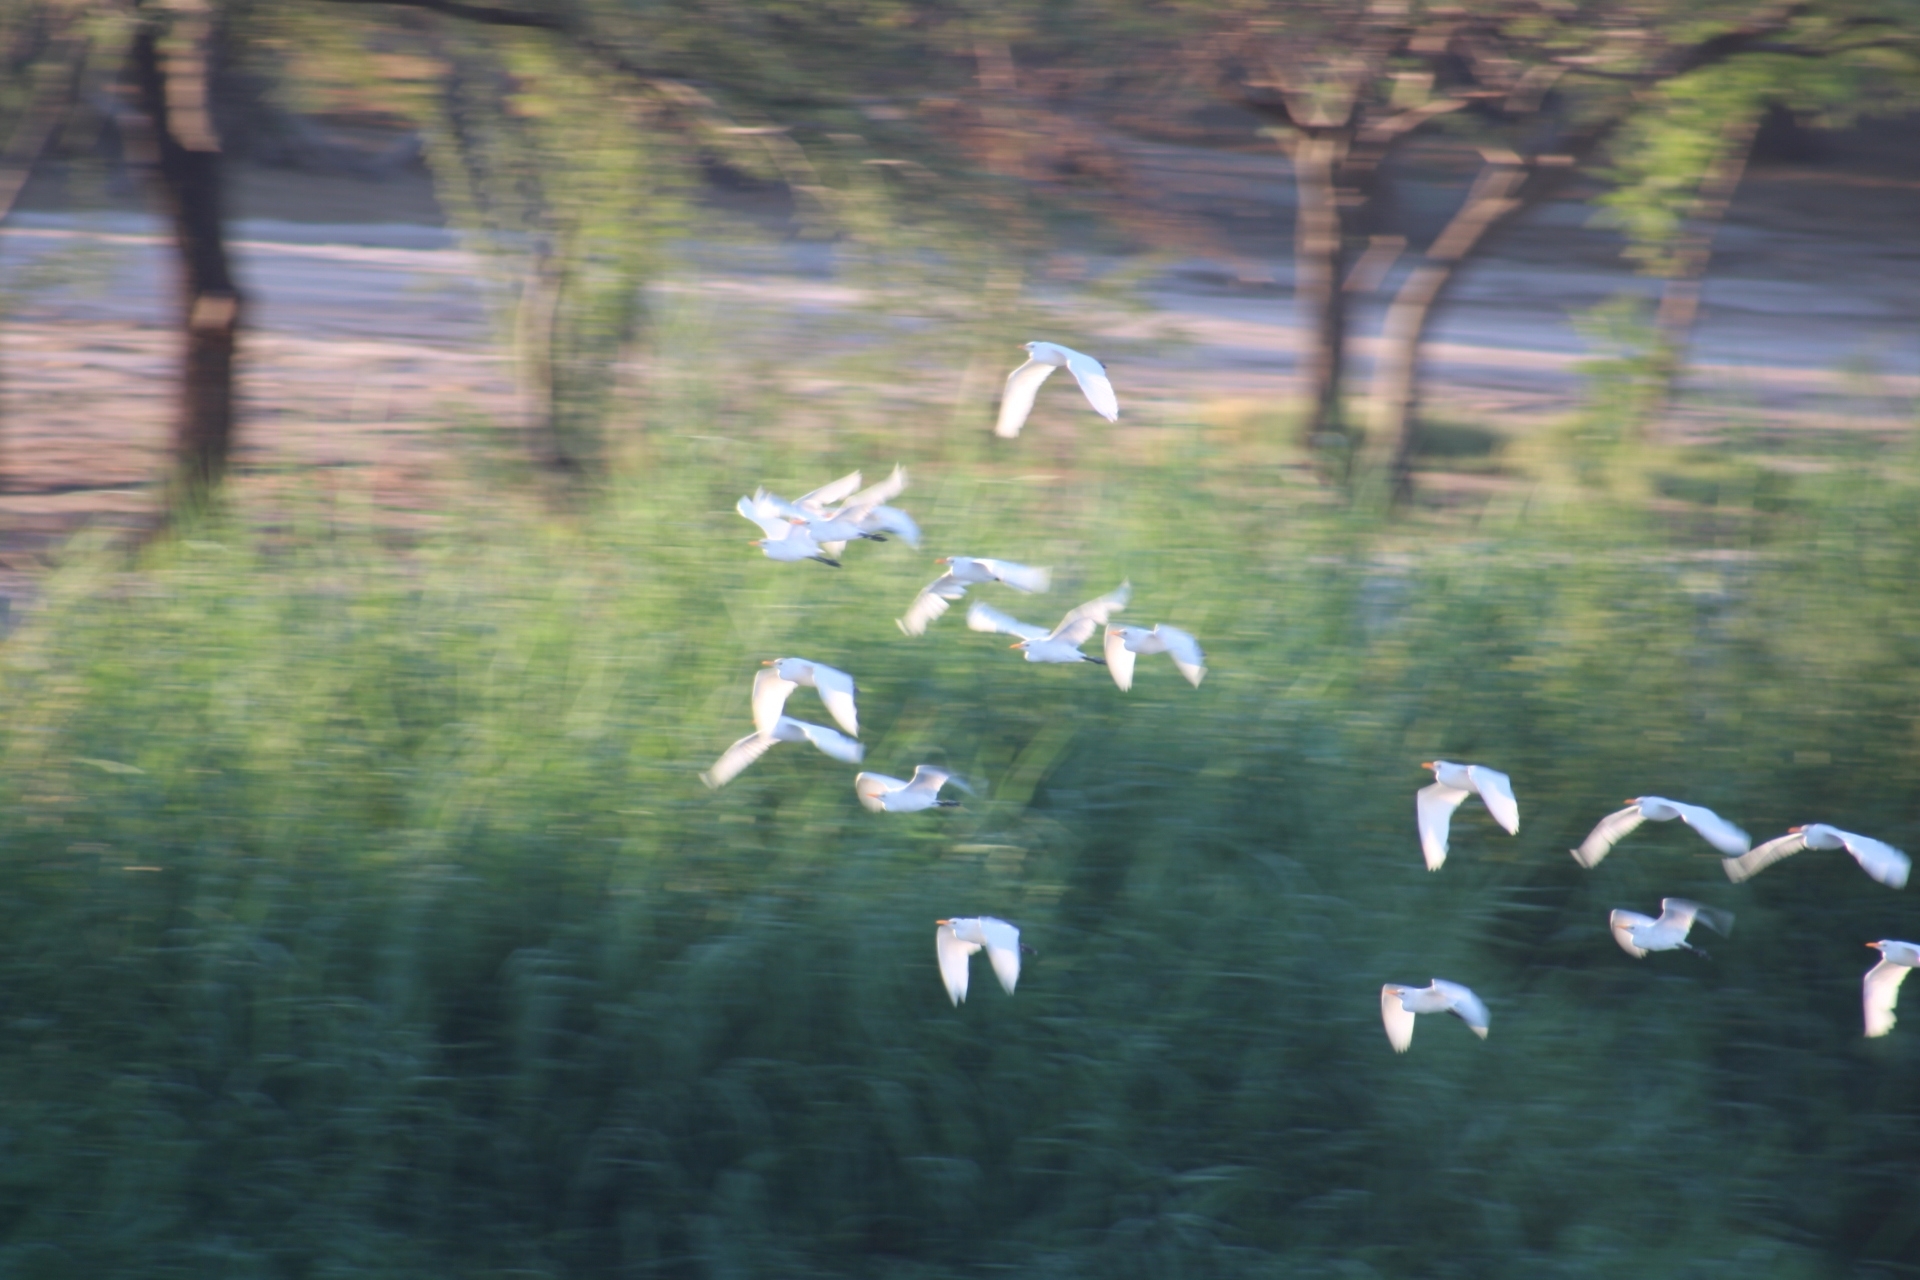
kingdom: Animalia
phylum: Chordata
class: Aves
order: Pelecaniformes
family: Ardeidae
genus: Bubulcus
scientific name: Bubulcus ibis
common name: Cattle egret
